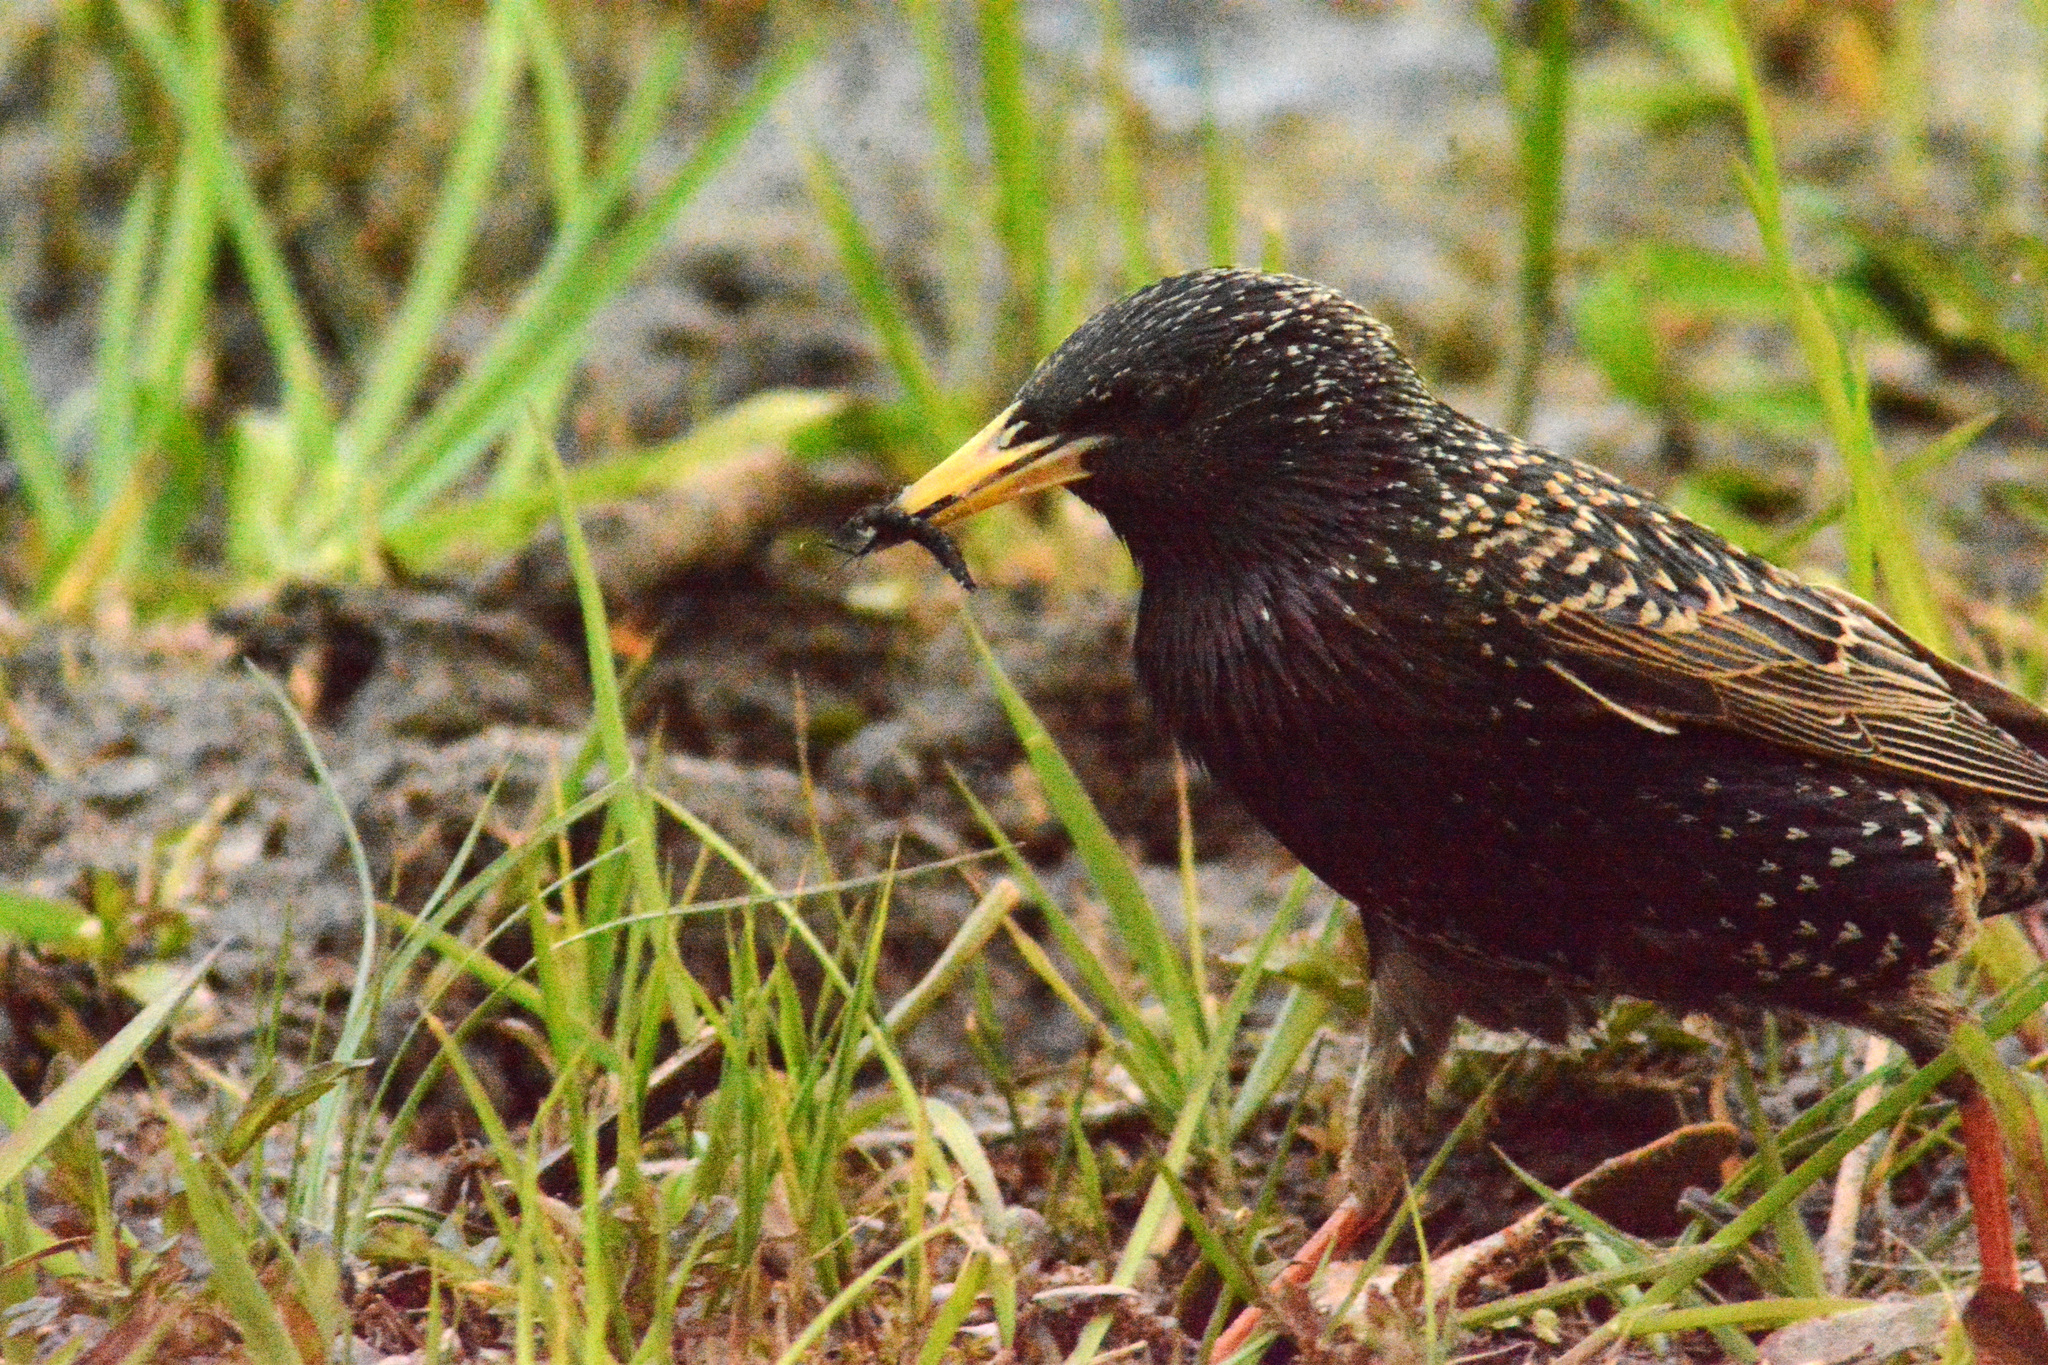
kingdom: Animalia
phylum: Chordata
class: Aves
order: Passeriformes
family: Sturnidae
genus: Sturnus
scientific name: Sturnus vulgaris
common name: Common starling
